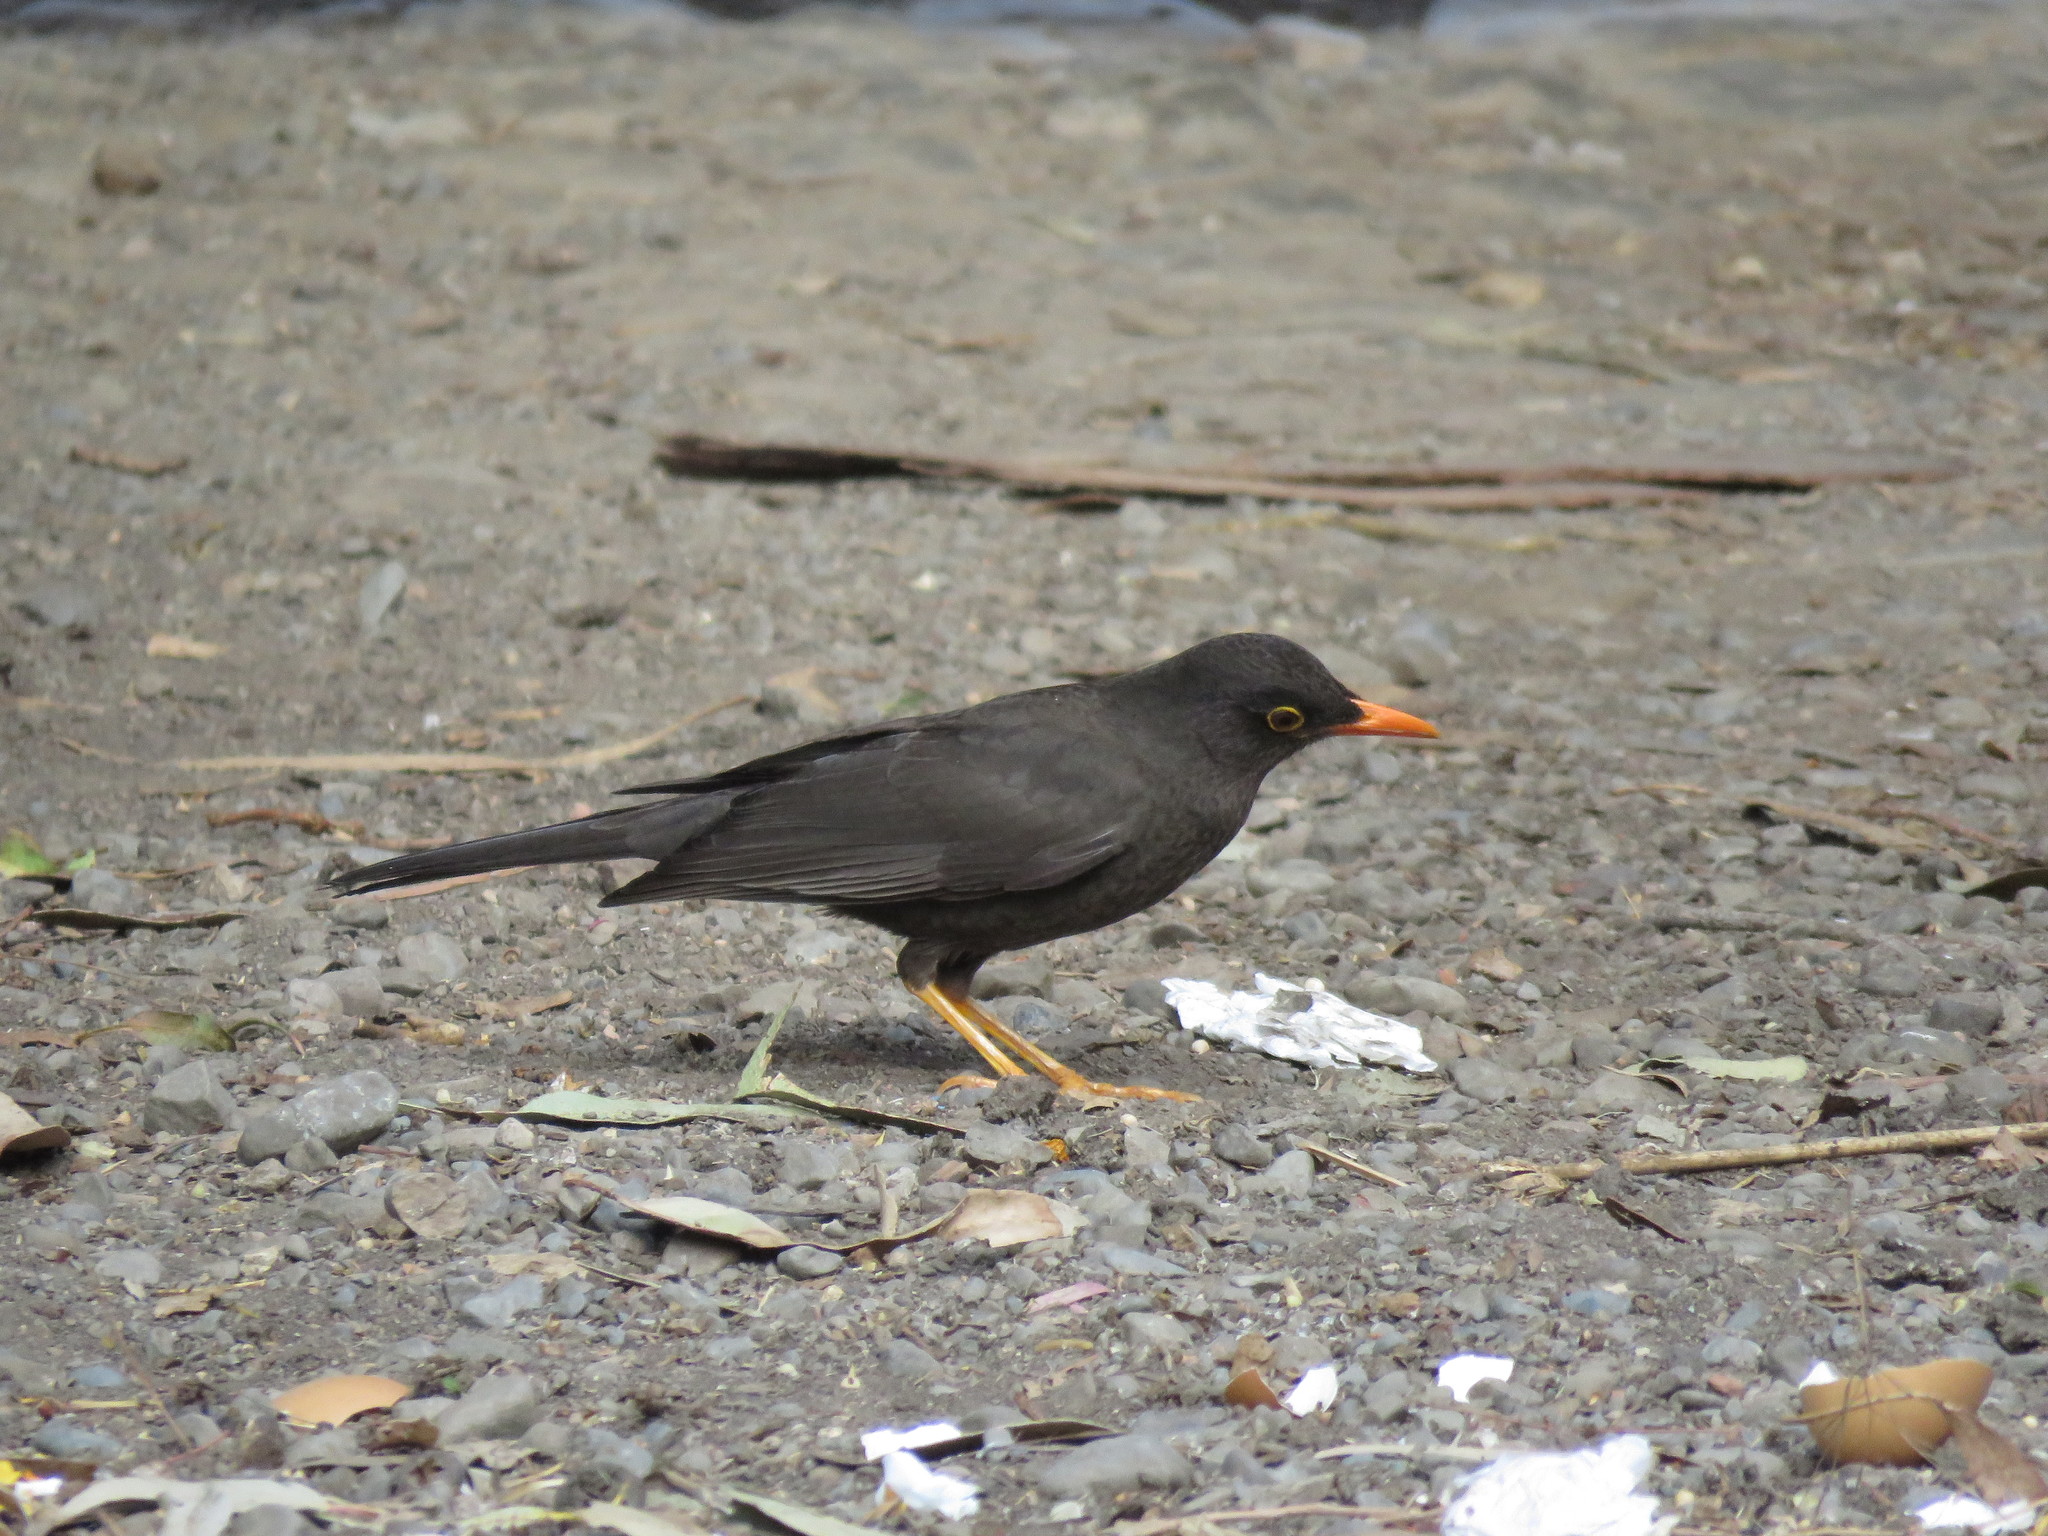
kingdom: Animalia
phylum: Chordata
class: Aves
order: Passeriformes
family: Turdidae
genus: Turdus
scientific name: Turdus fuscater
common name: Great thrush
